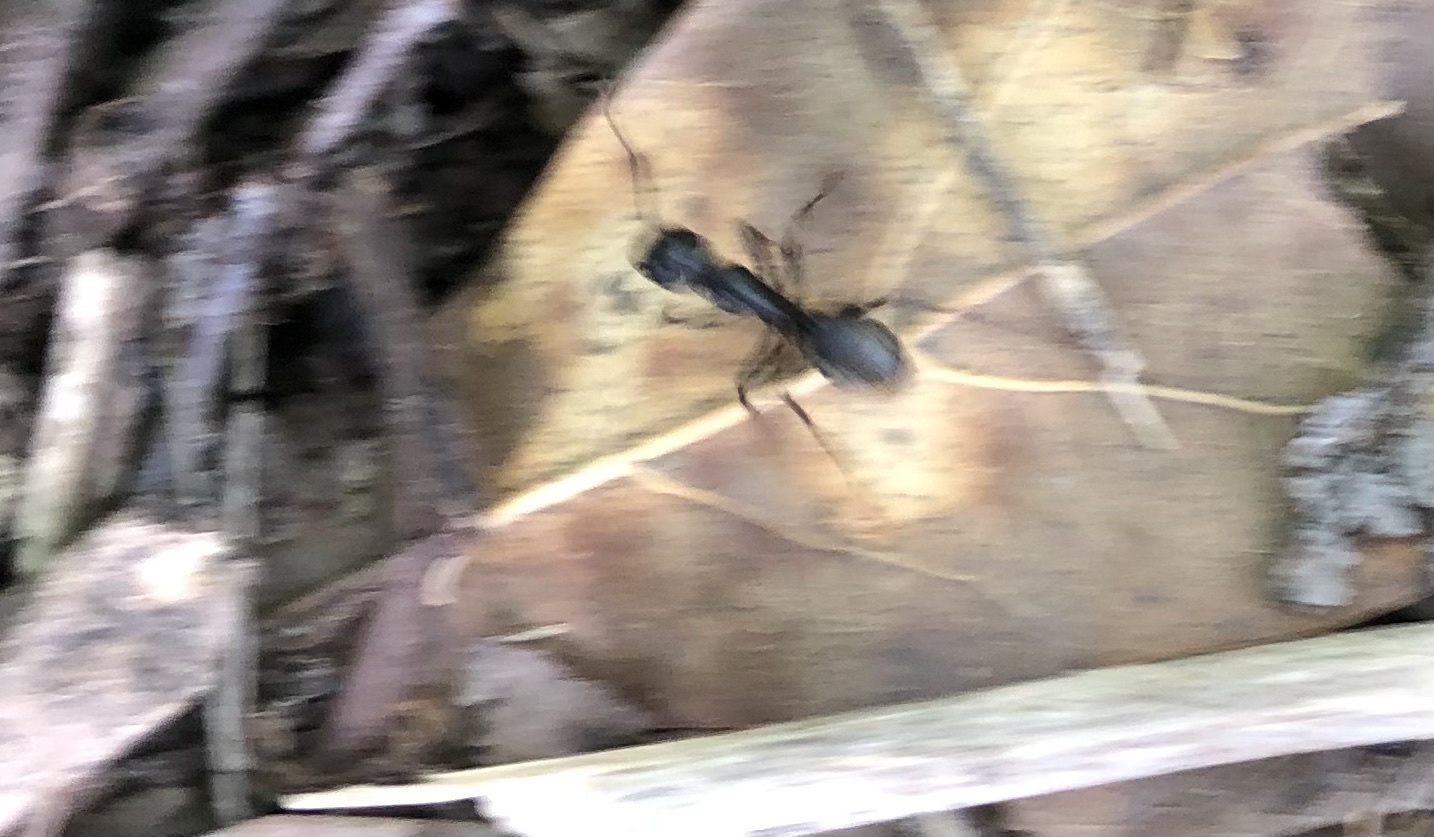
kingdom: Animalia
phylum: Arthropoda
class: Insecta
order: Hymenoptera
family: Formicidae
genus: Camponotus
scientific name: Camponotus pennsylvanicus
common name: Black carpenter ant
